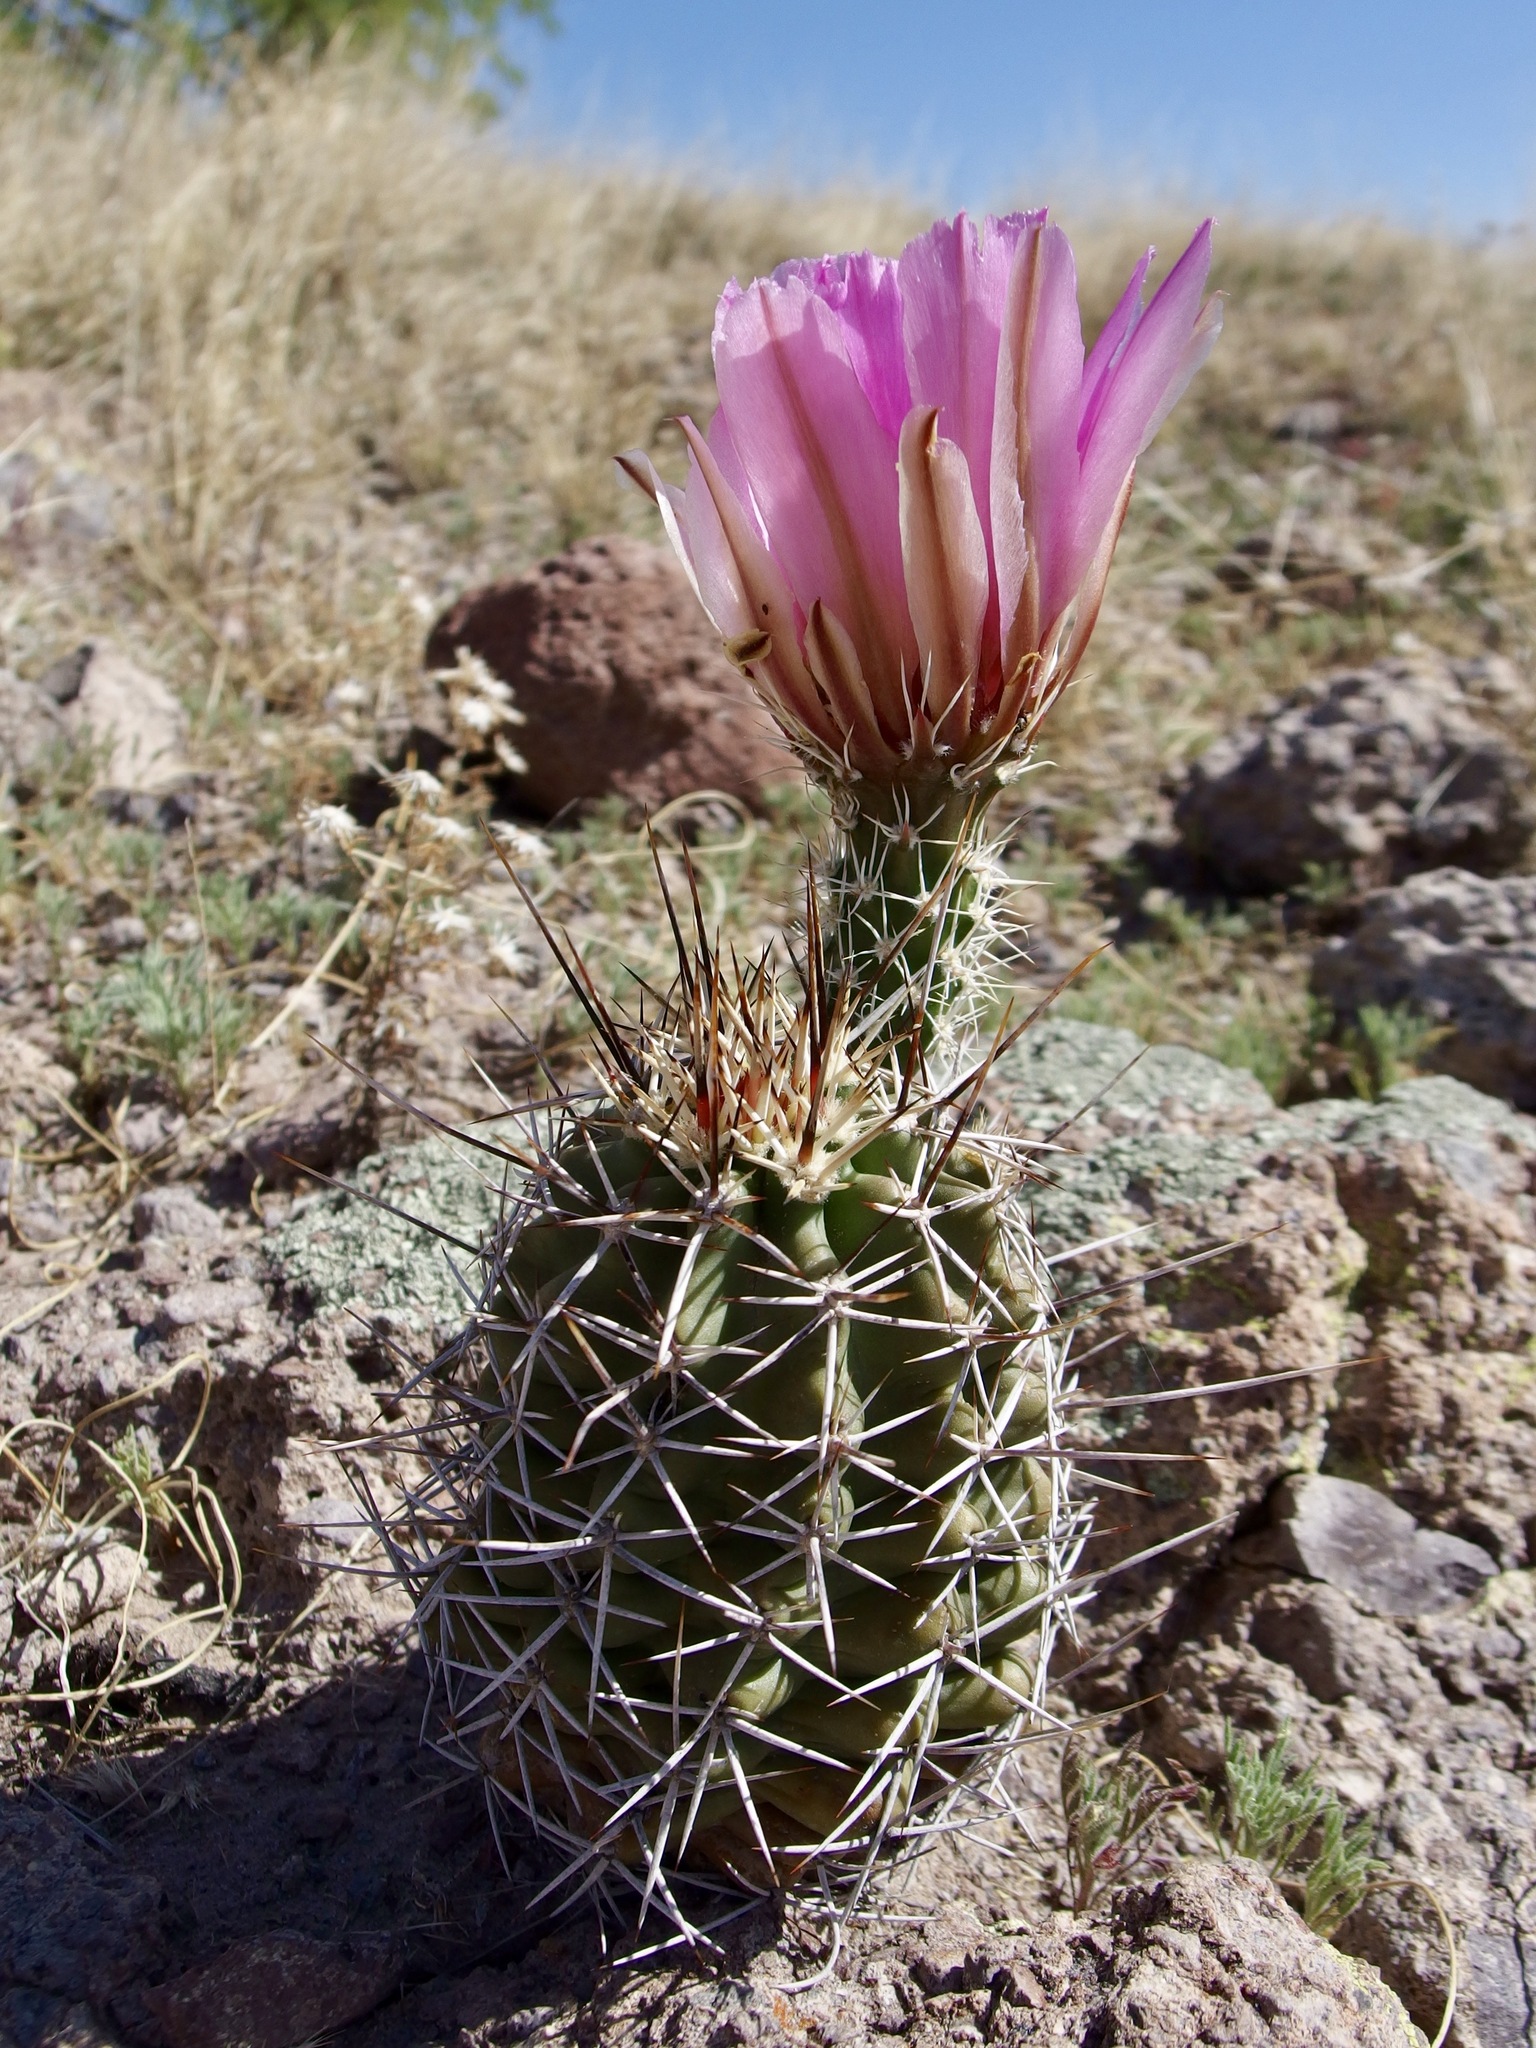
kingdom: Plantae
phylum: Tracheophyta
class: Magnoliopsida
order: Caryophyllales
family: Cactaceae
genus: Echinocereus
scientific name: Echinocereus fendleri
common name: Fendler's hedgehog cactus
